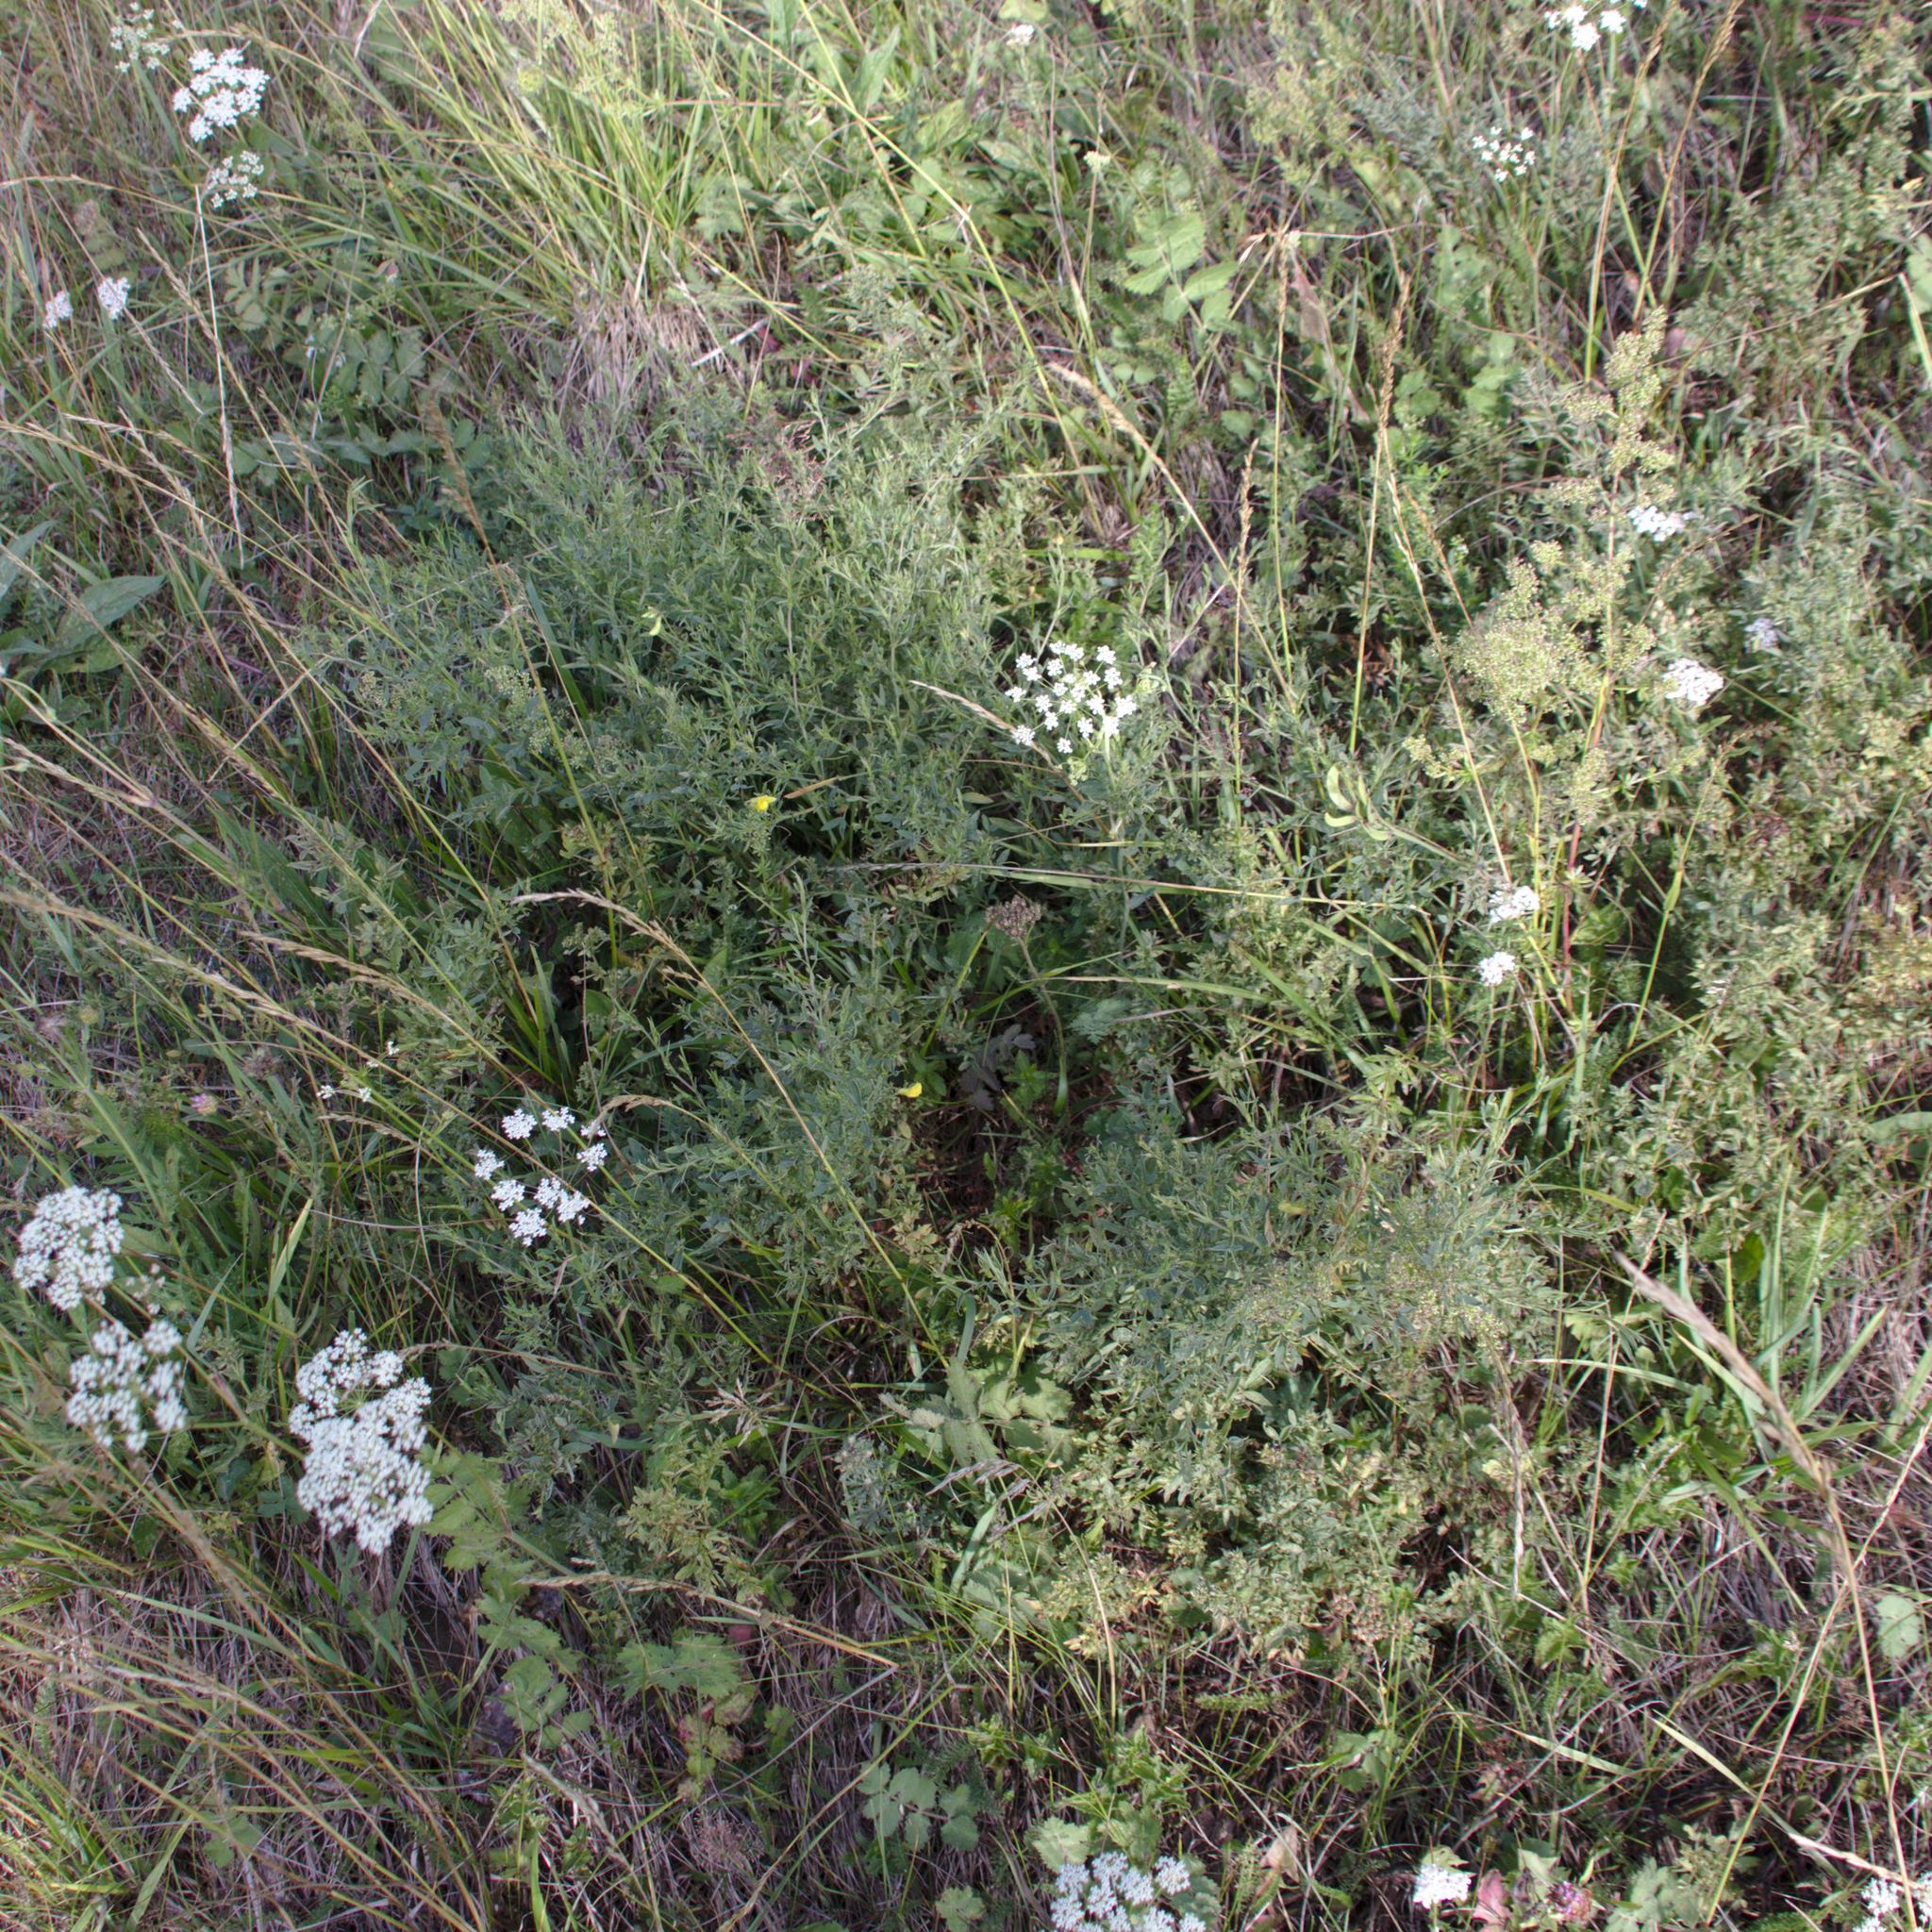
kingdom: Plantae
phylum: Tracheophyta
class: Magnoliopsida
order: Fabales
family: Fabaceae
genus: Lathyrus
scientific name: Lathyrus pratensis
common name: Meadow vetchling
